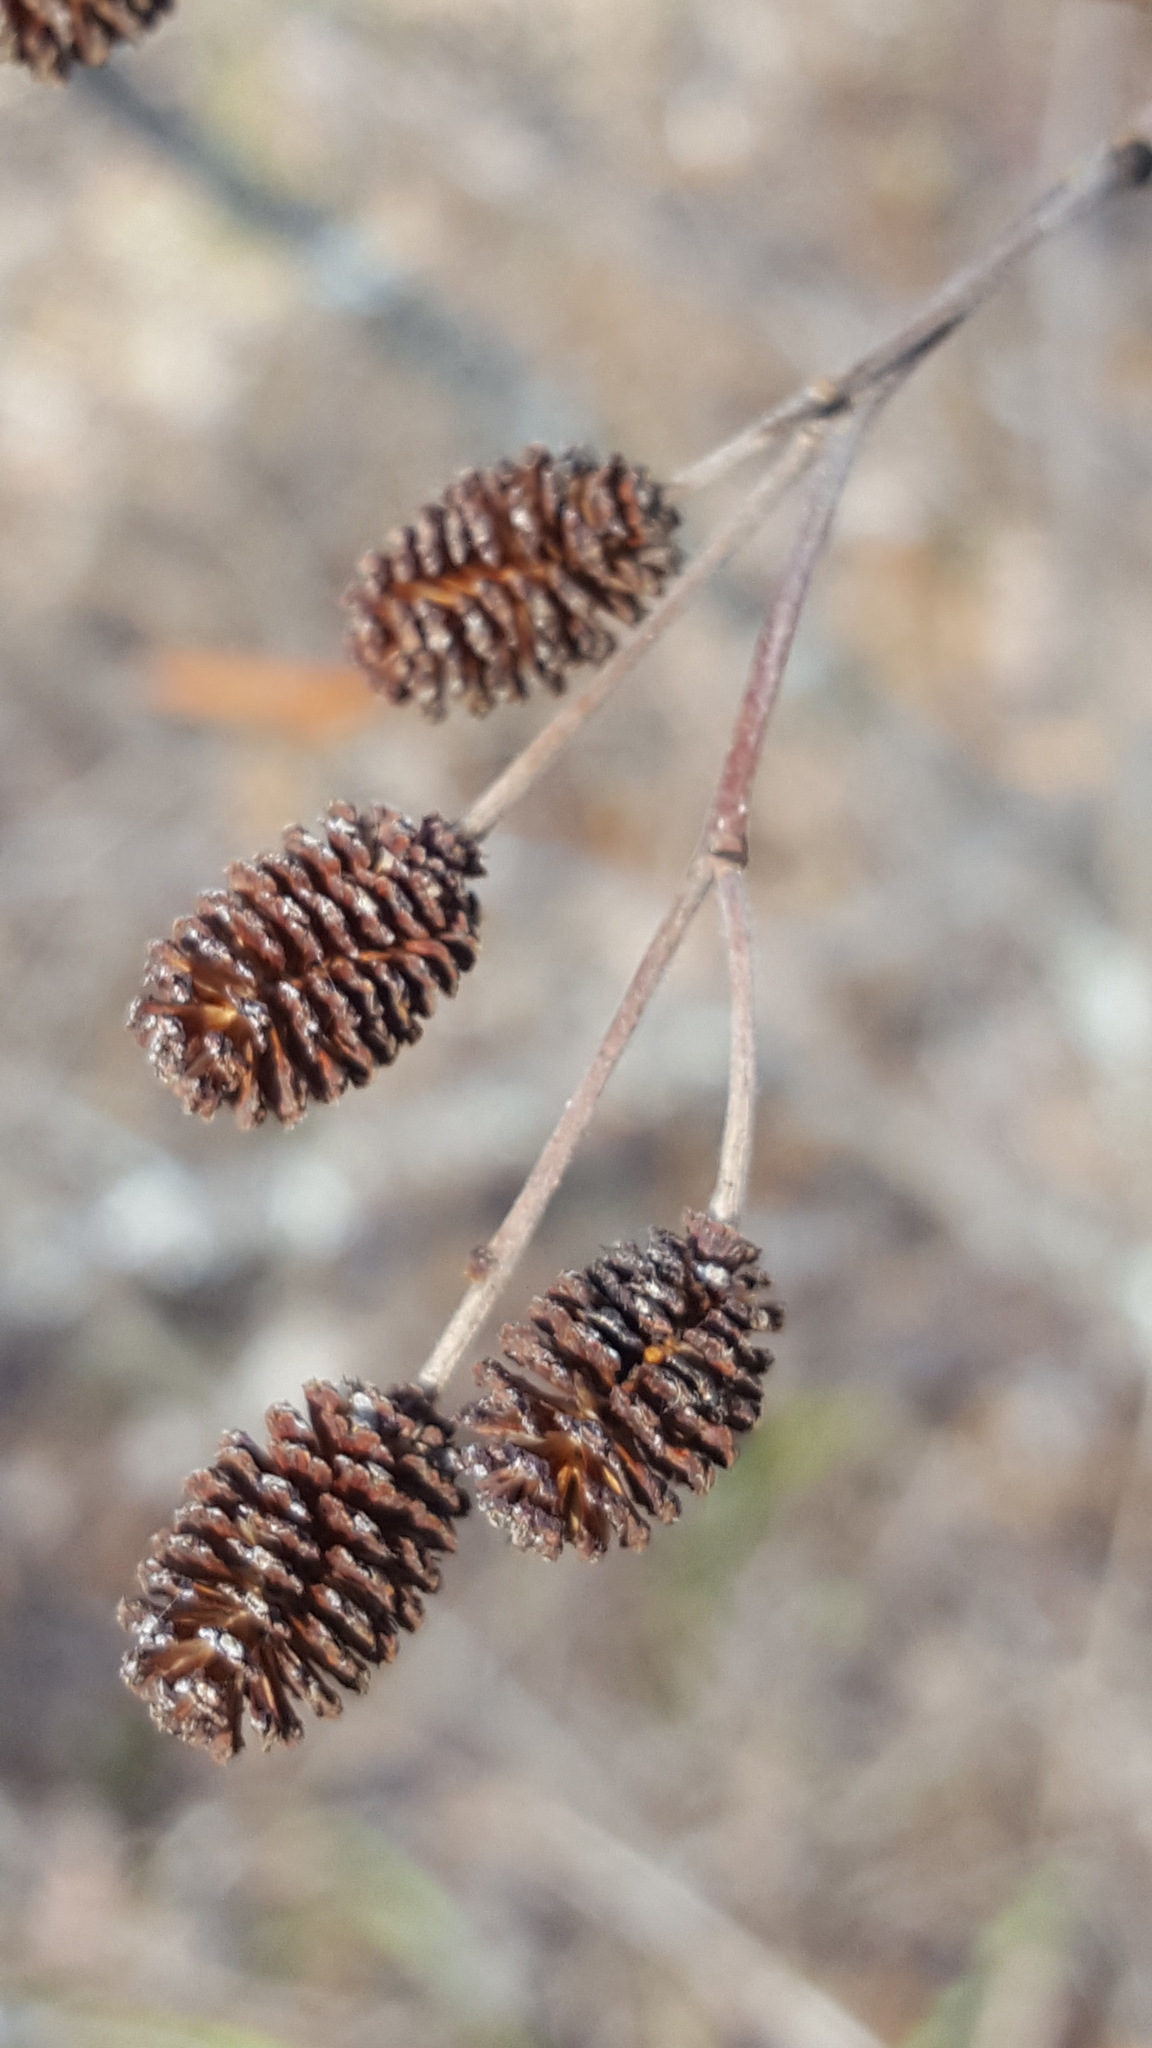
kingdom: Plantae
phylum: Tracheophyta
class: Magnoliopsida
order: Fagales
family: Betulaceae
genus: Alnus
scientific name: Alnus alnobetula
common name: Green alder
